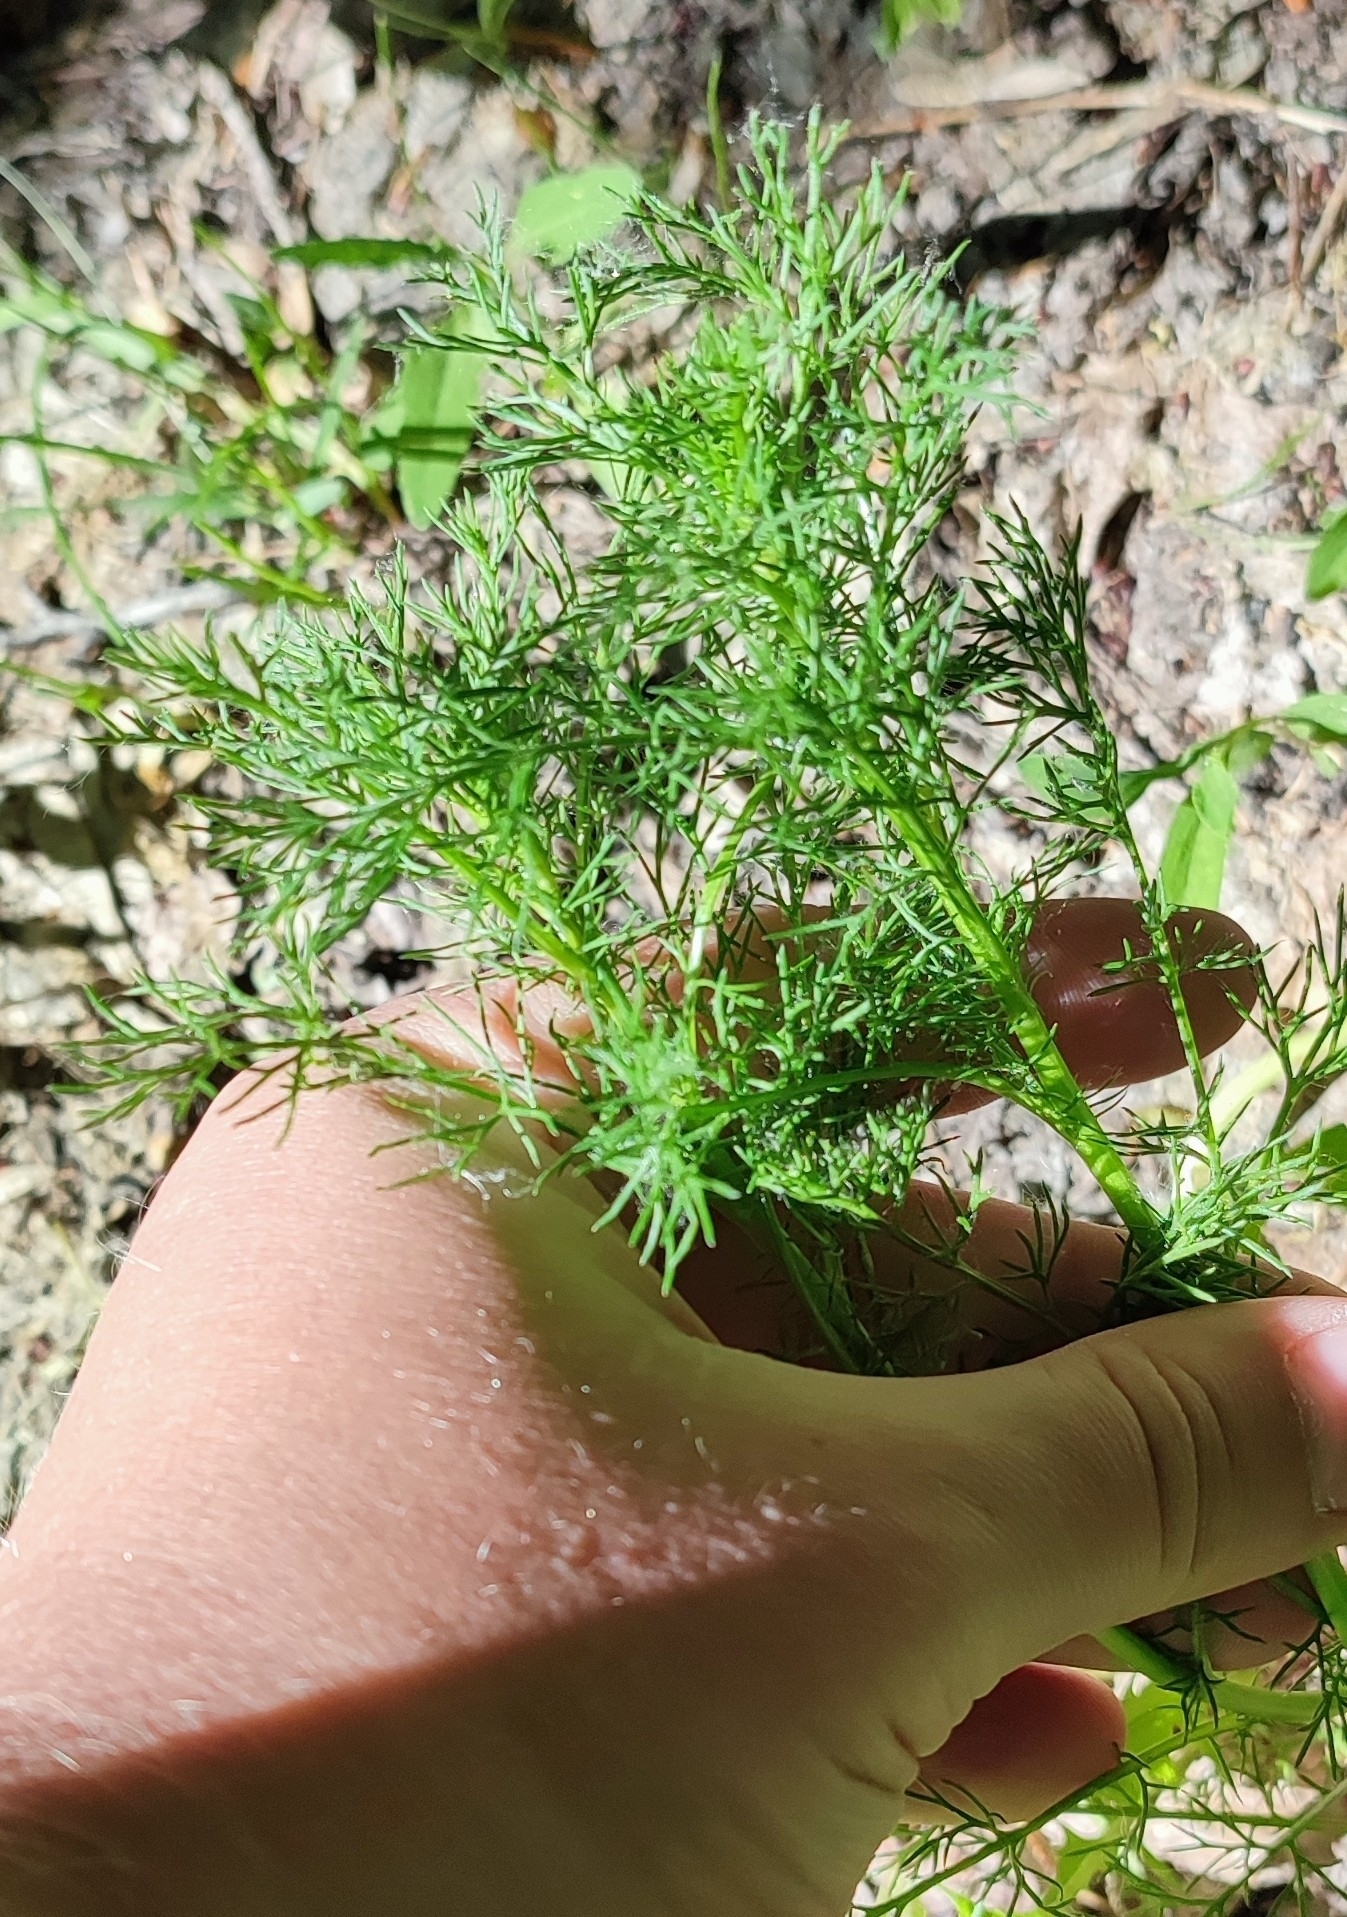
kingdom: Plantae
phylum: Tracheophyta
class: Magnoliopsida
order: Asterales
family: Asteraceae
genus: Tripleurospermum
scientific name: Tripleurospermum inodorum
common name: Scentless mayweed
